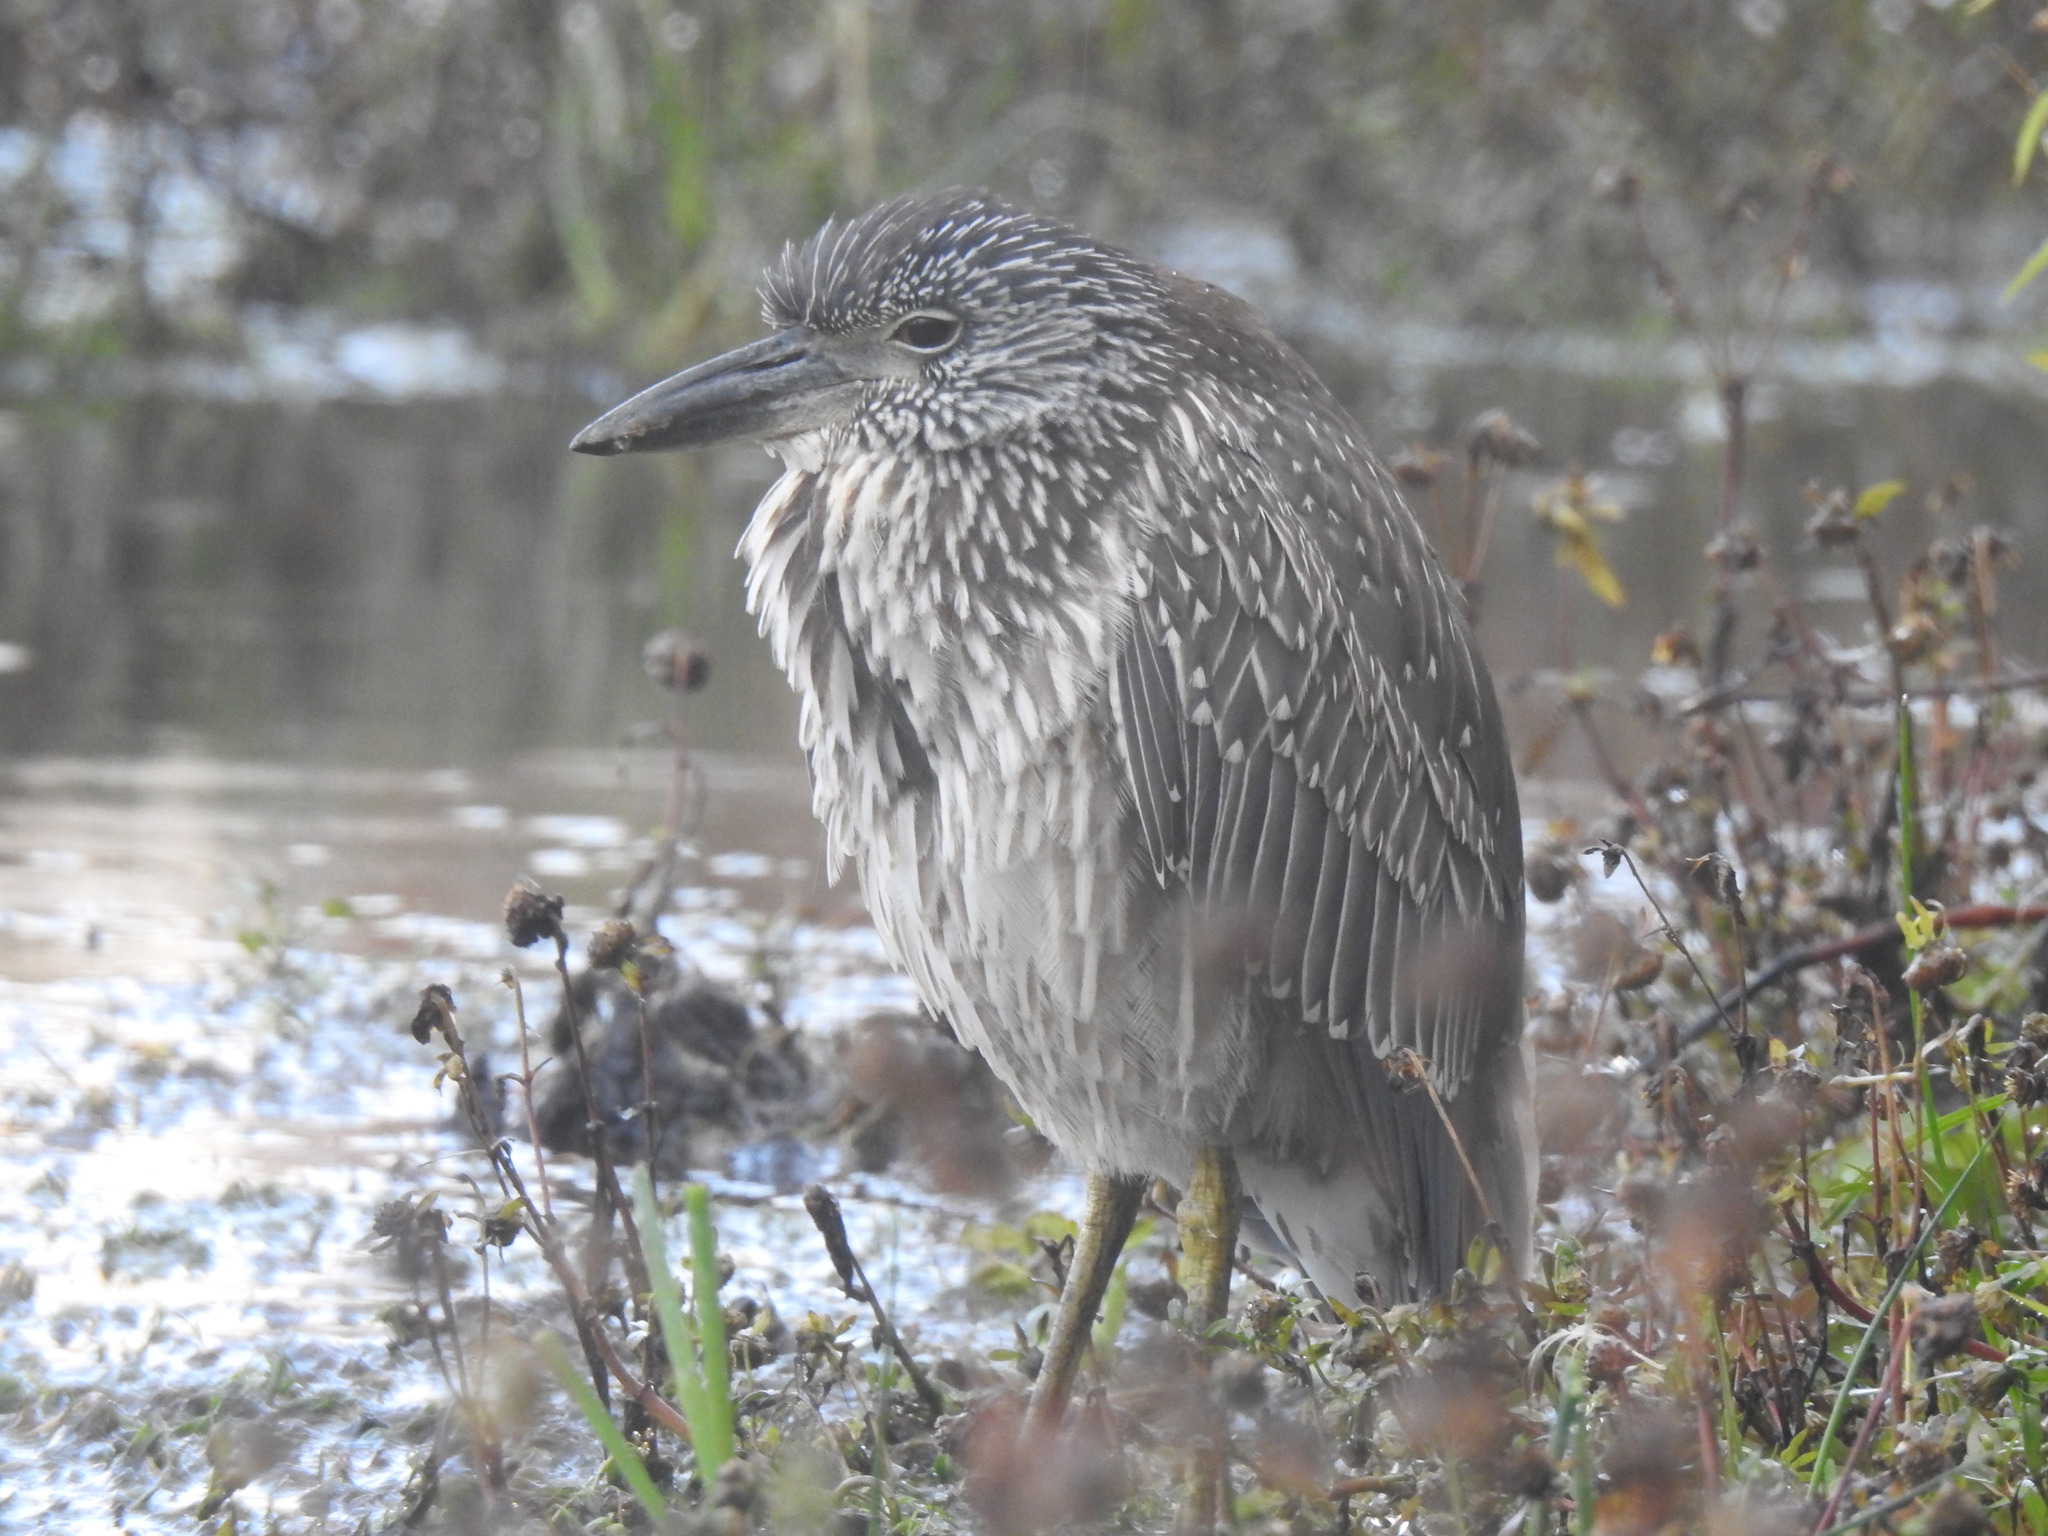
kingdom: Animalia
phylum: Chordata
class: Aves
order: Pelecaniformes
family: Ardeidae
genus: Nyctanassa
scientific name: Nyctanassa violacea
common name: Yellow-crowned night heron
